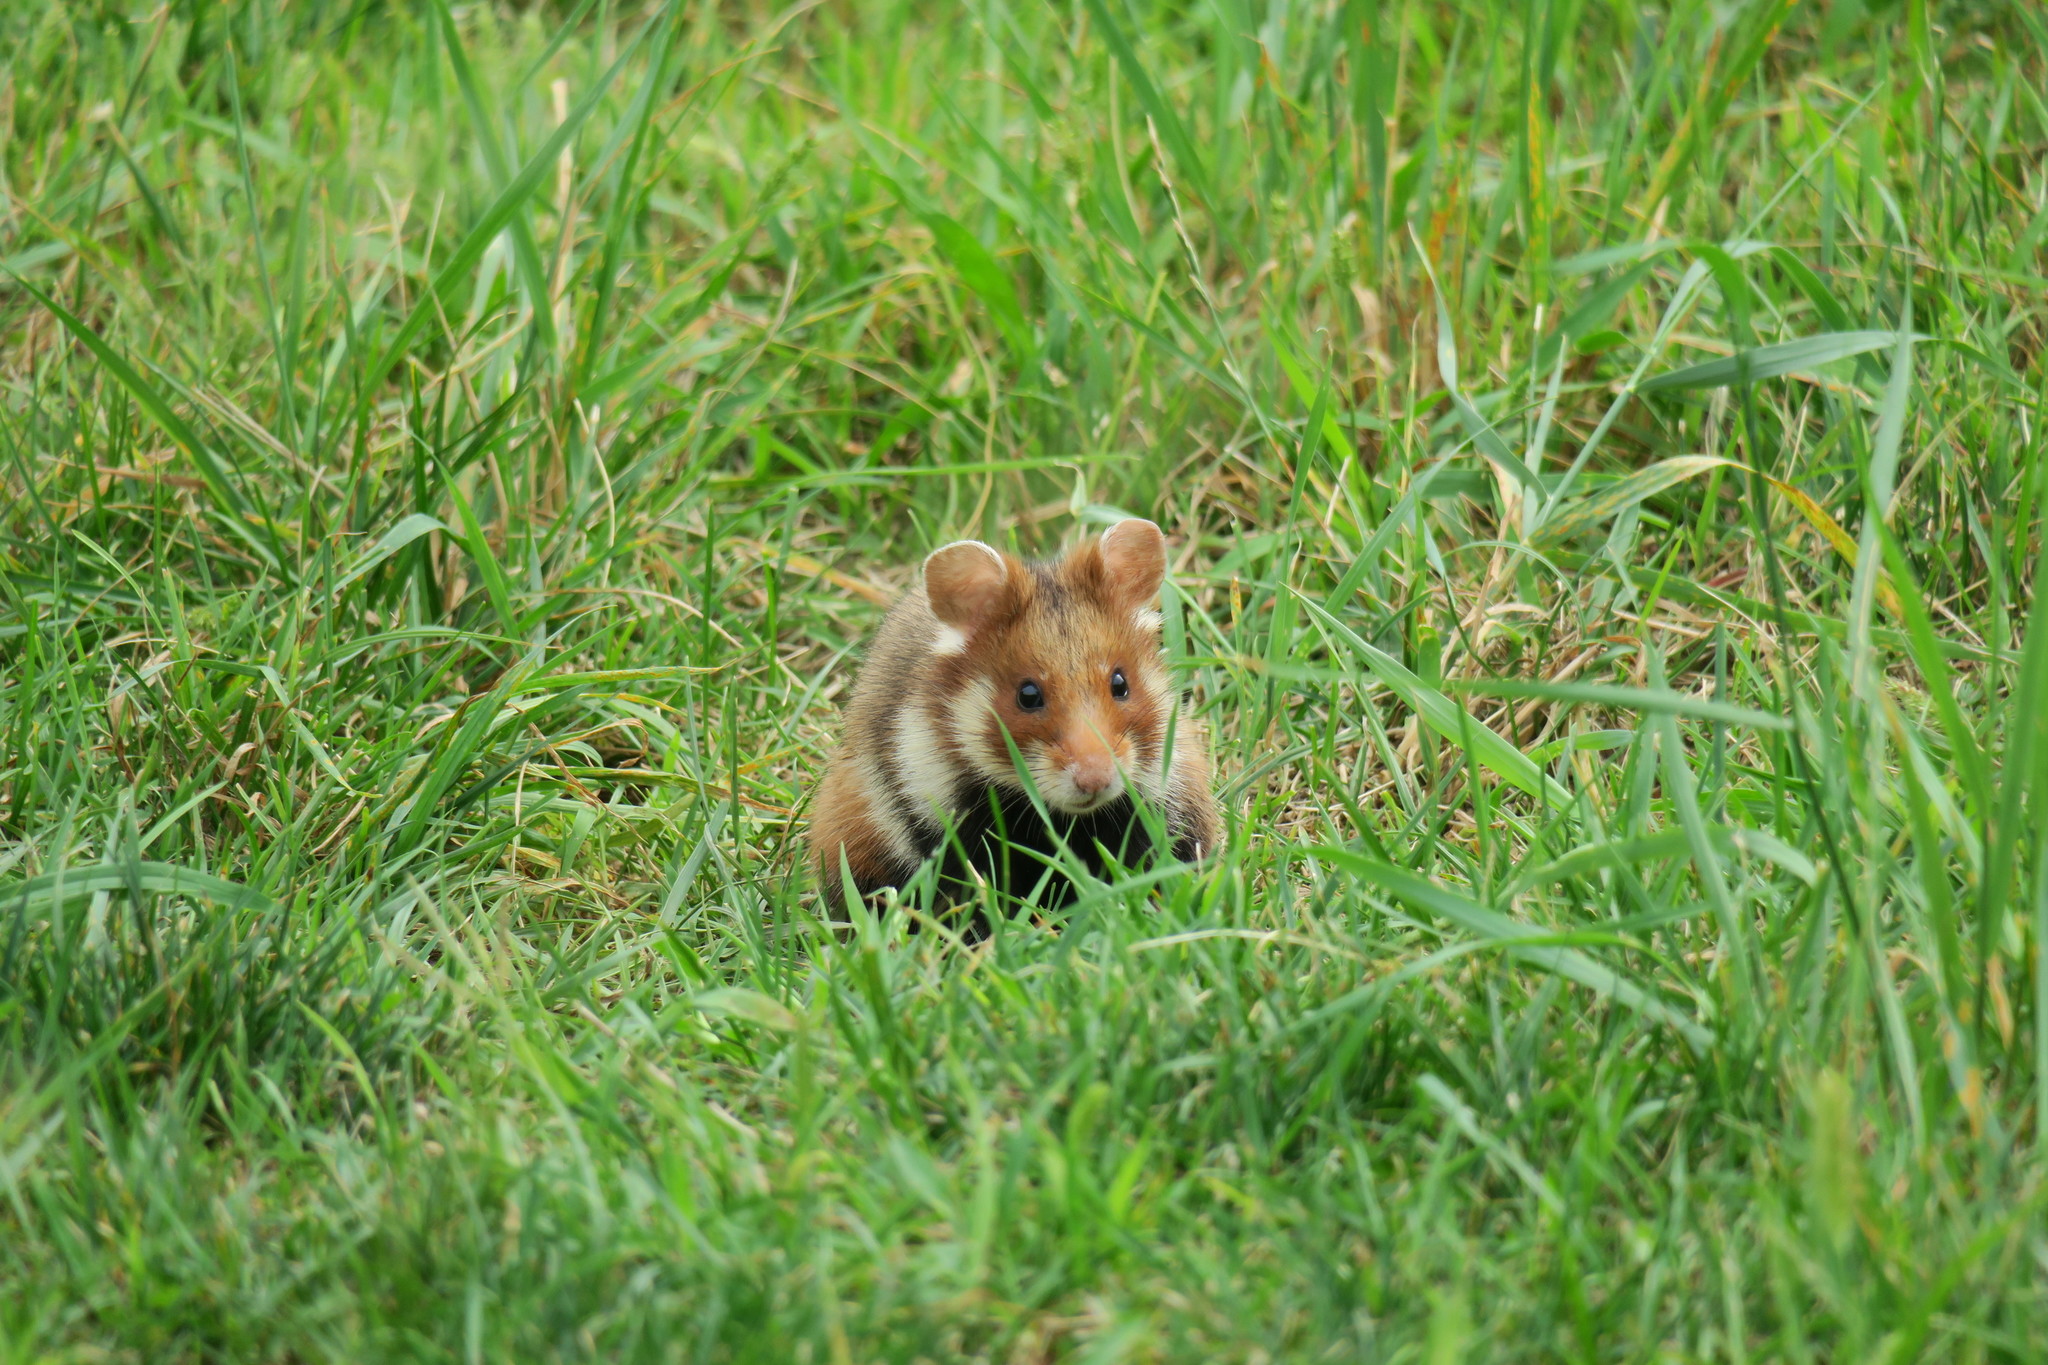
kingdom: Animalia
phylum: Chordata
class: Mammalia
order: Rodentia
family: Cricetidae
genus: Cricetus
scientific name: Cricetus cricetus
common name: Common hamster
